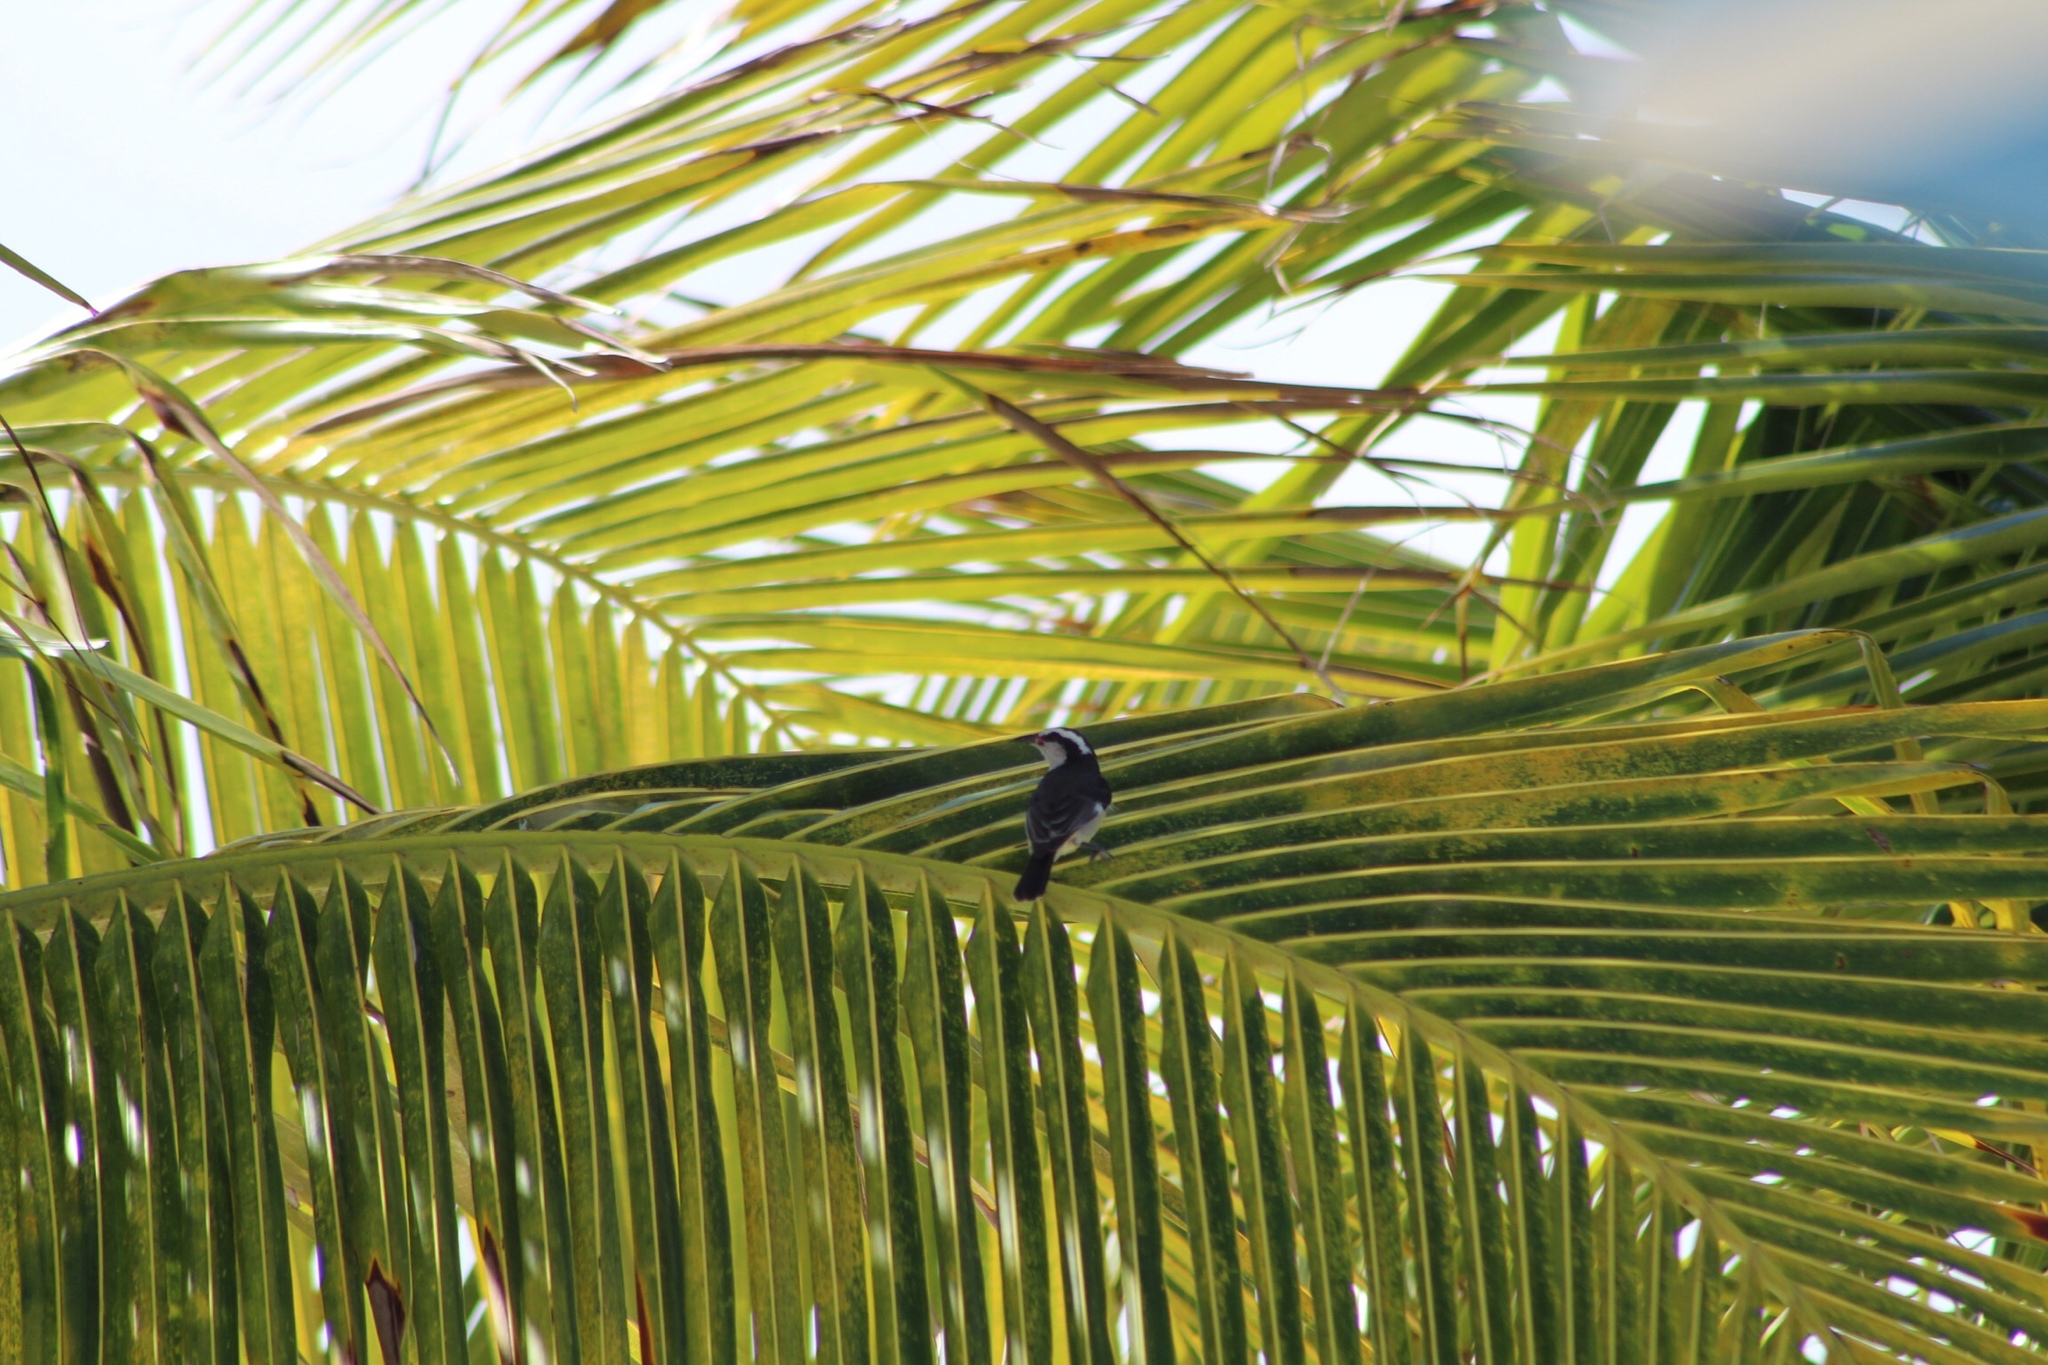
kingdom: Animalia
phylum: Chordata
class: Aves
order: Passeriformes
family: Thraupidae
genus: Coereba
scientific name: Coereba flaveola
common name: Bananaquit
